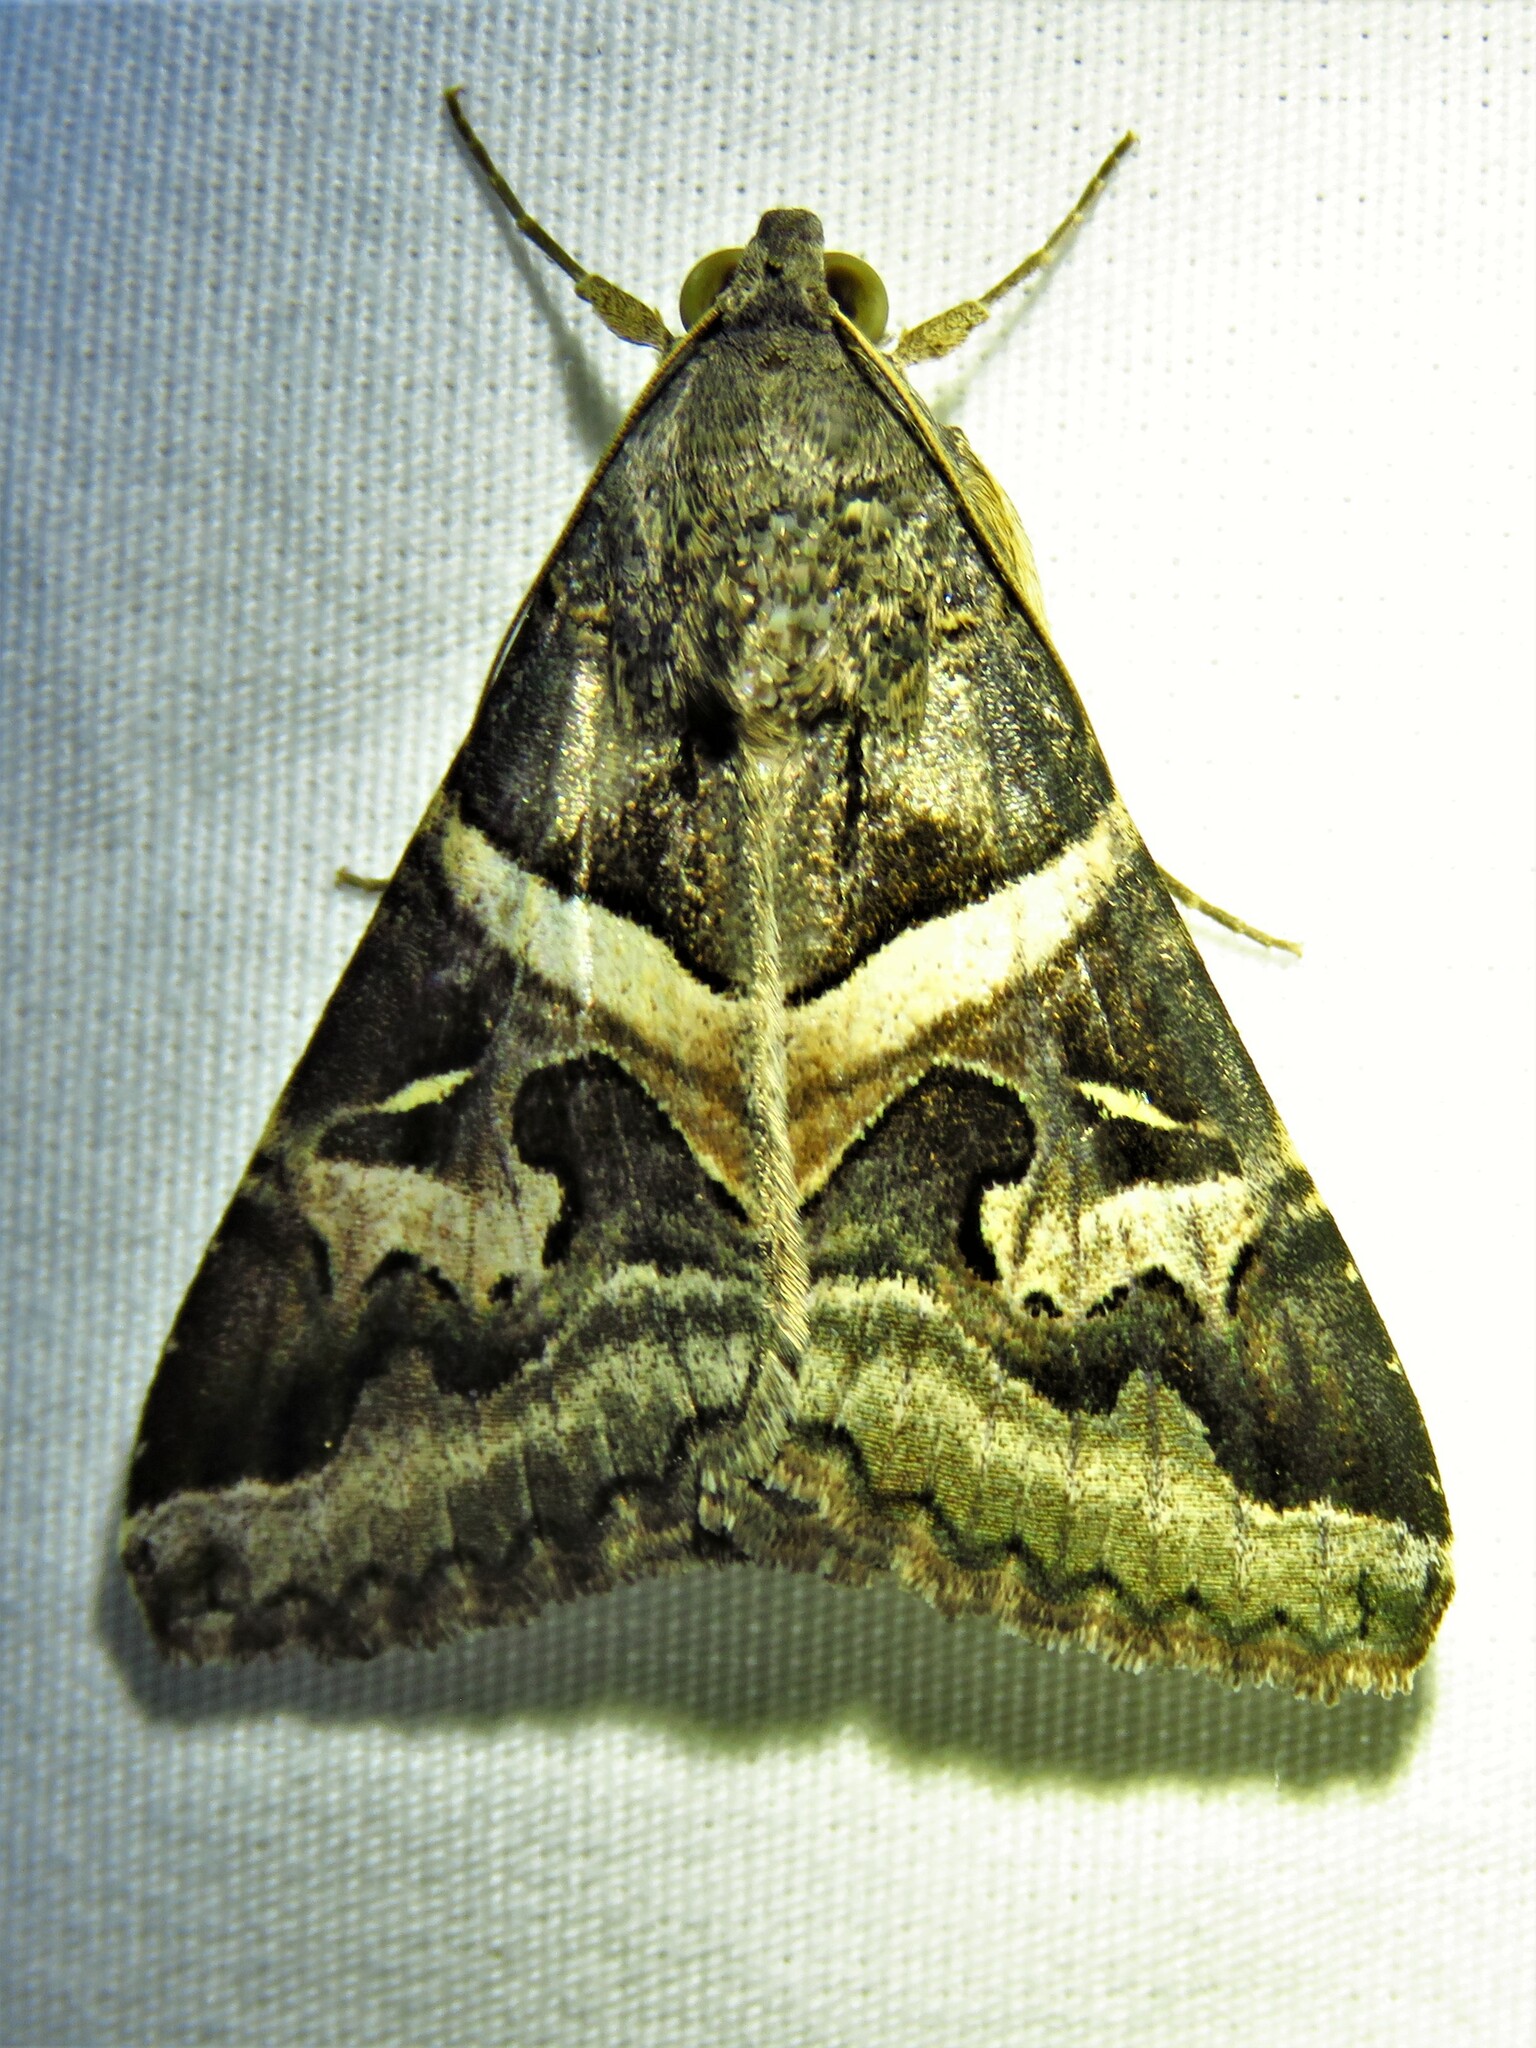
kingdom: Animalia
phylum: Arthropoda
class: Insecta
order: Lepidoptera
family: Erebidae
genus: Melipotis
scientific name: Melipotis indomita
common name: Moth
